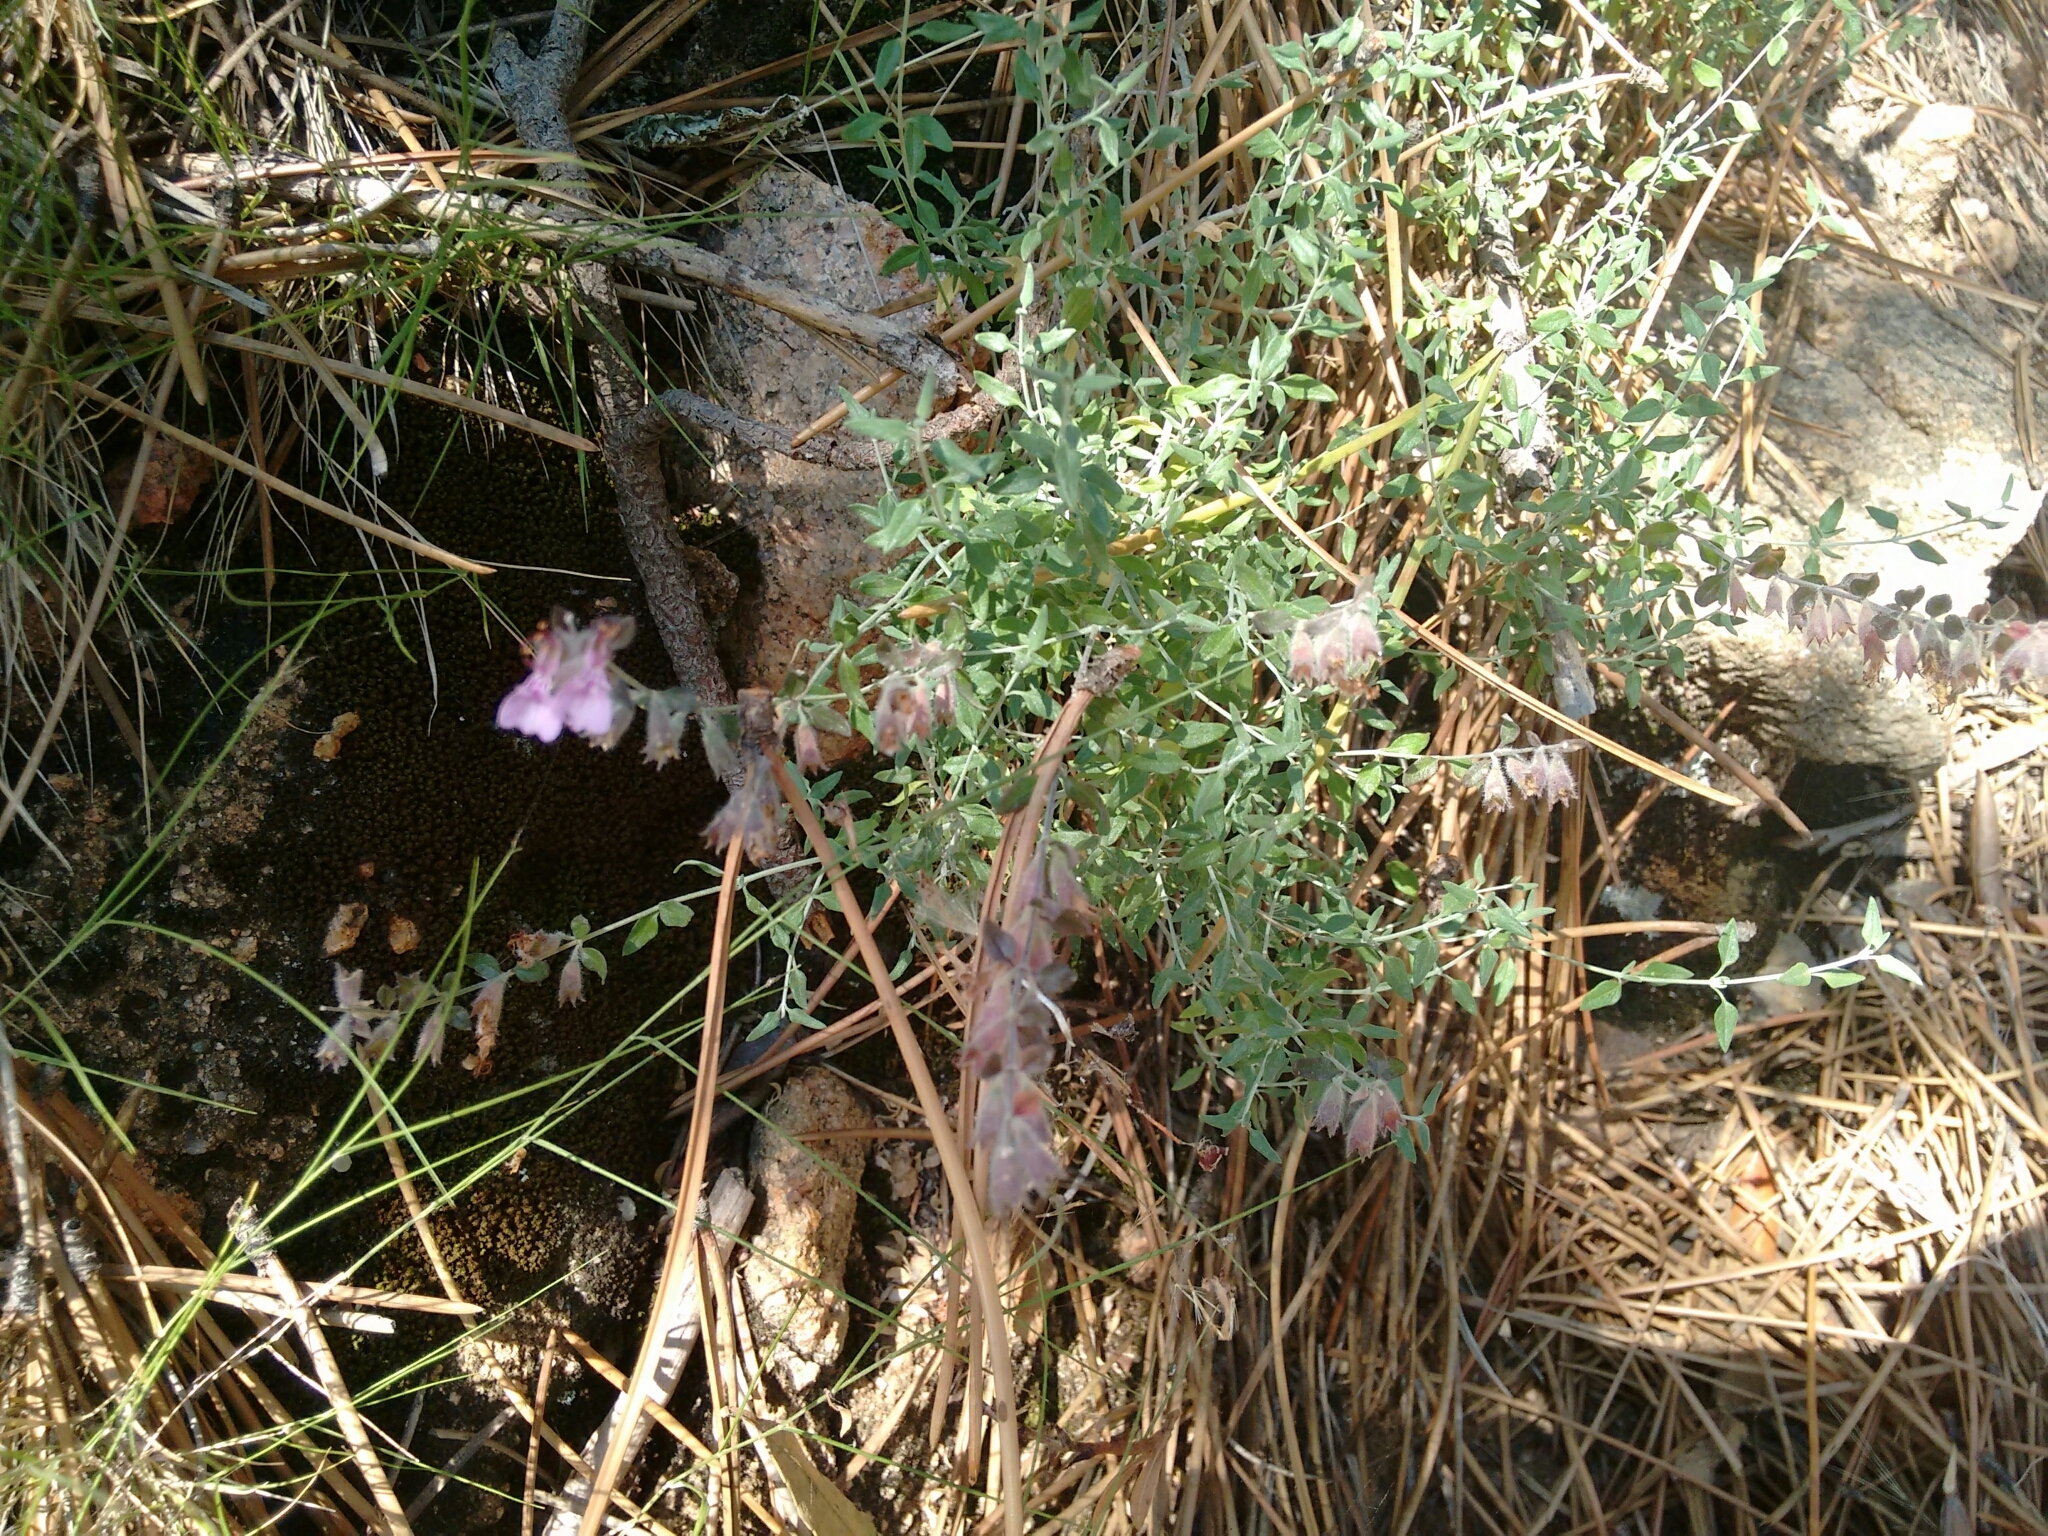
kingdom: Plantae
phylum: Tracheophyta
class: Magnoliopsida
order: Lamiales
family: Lamiaceae
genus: Teucrium
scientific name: Teucrium marum
